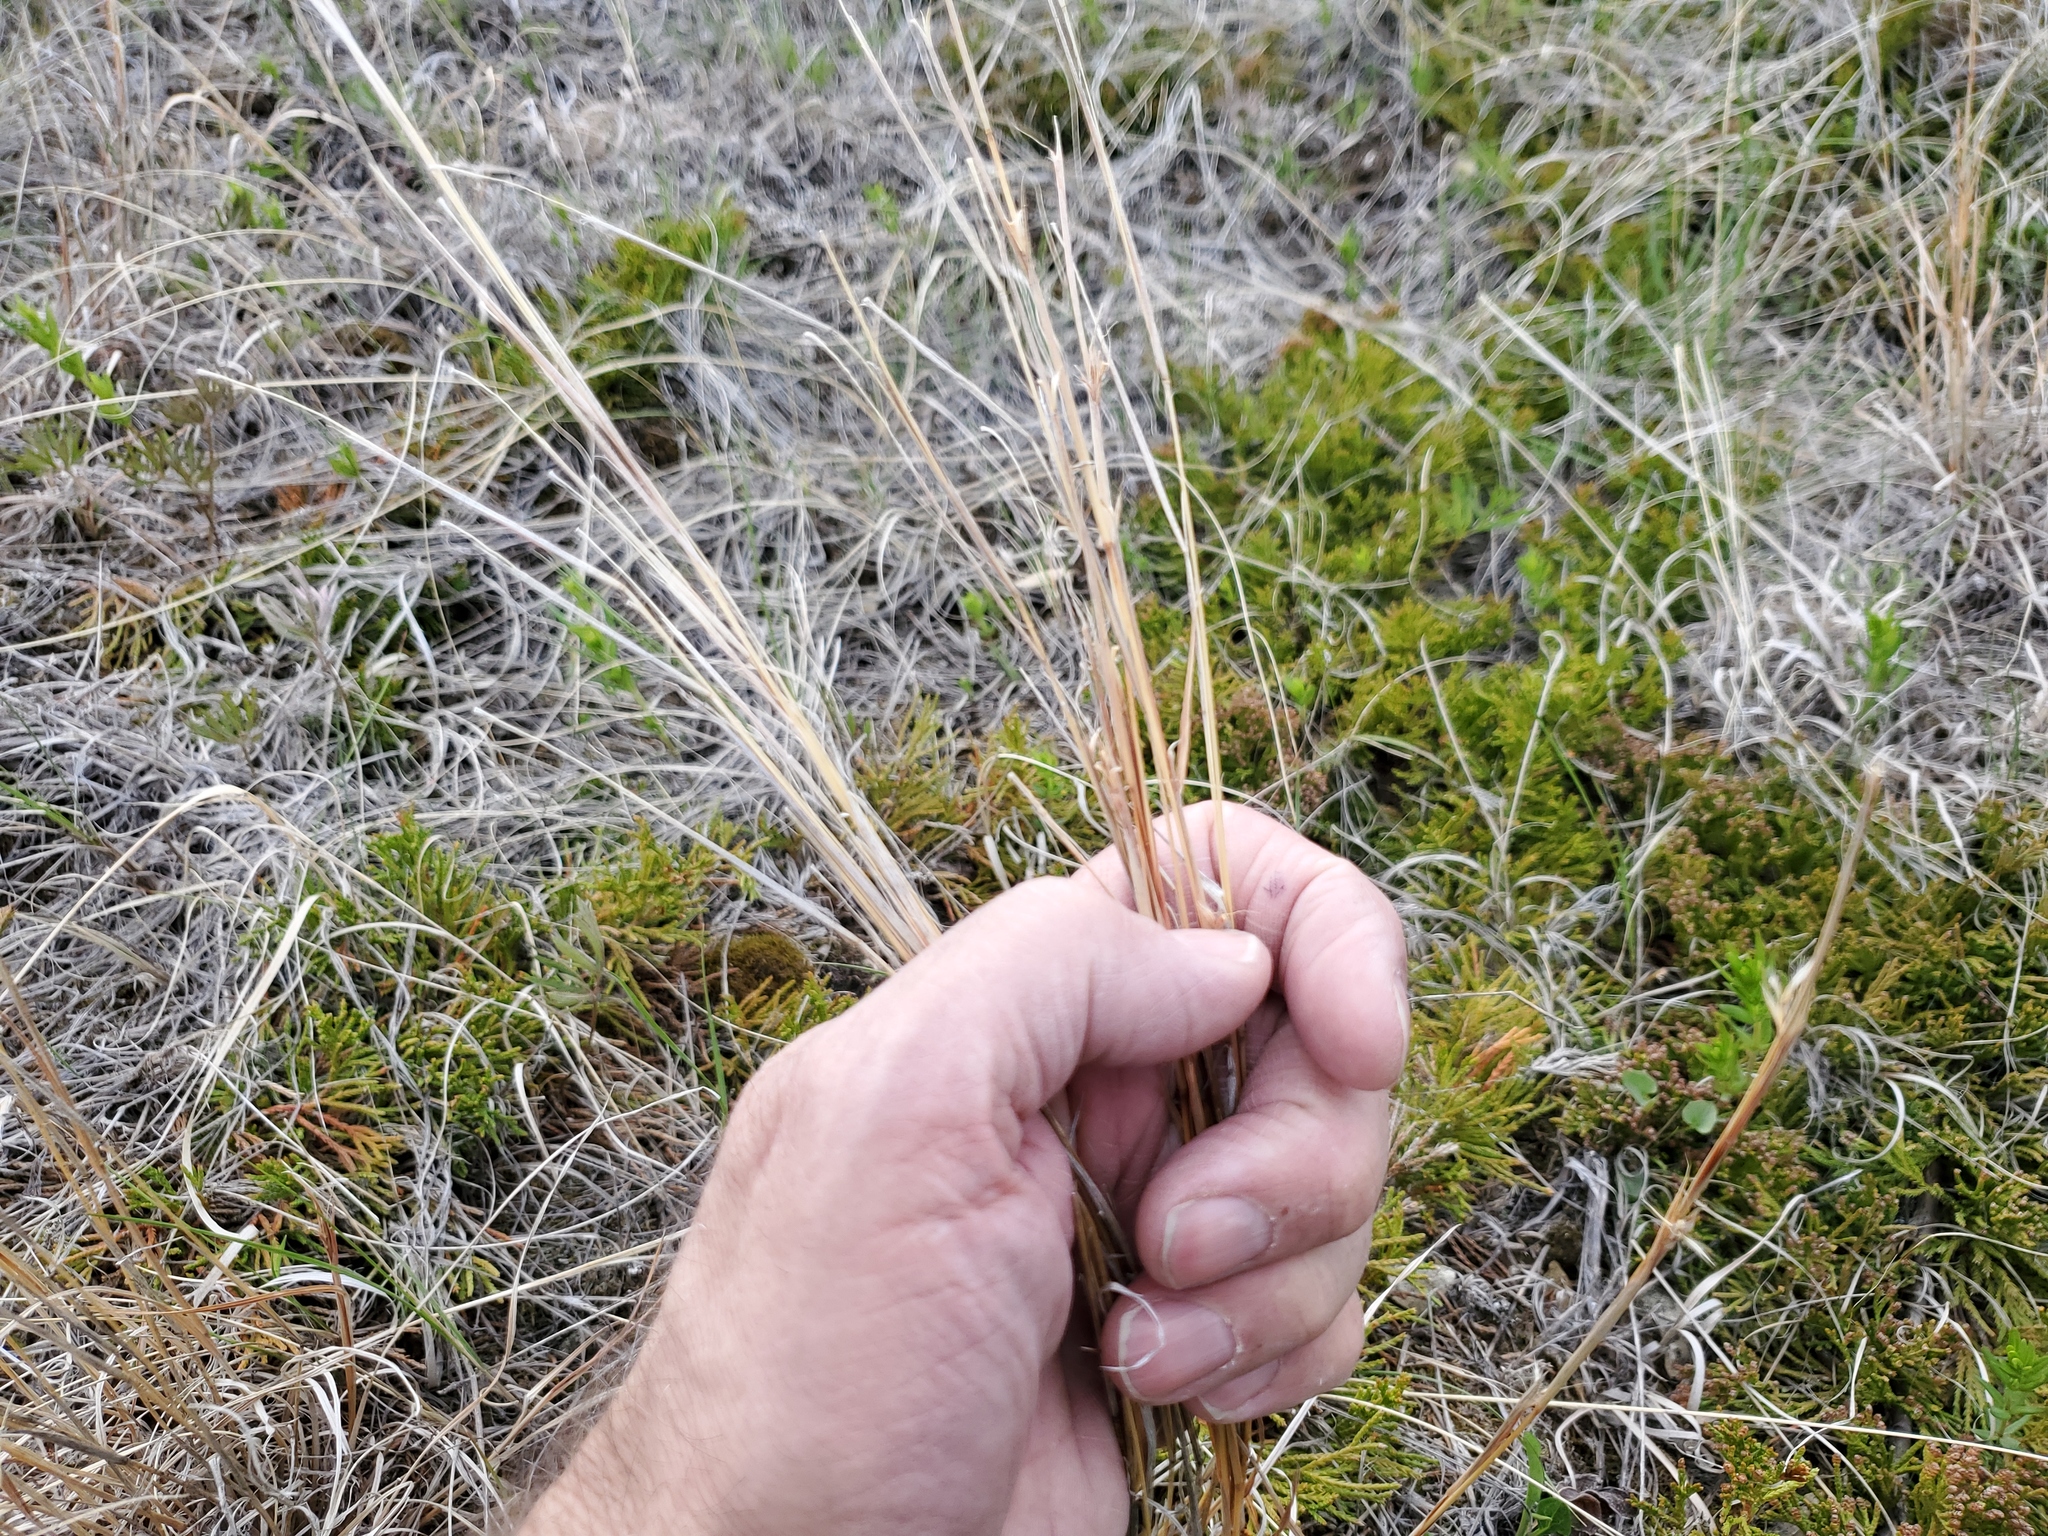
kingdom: Plantae
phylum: Tracheophyta
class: Liliopsida
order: Poales
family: Poaceae
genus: Schizachyrium
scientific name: Schizachyrium scoparium
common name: Little bluestem
